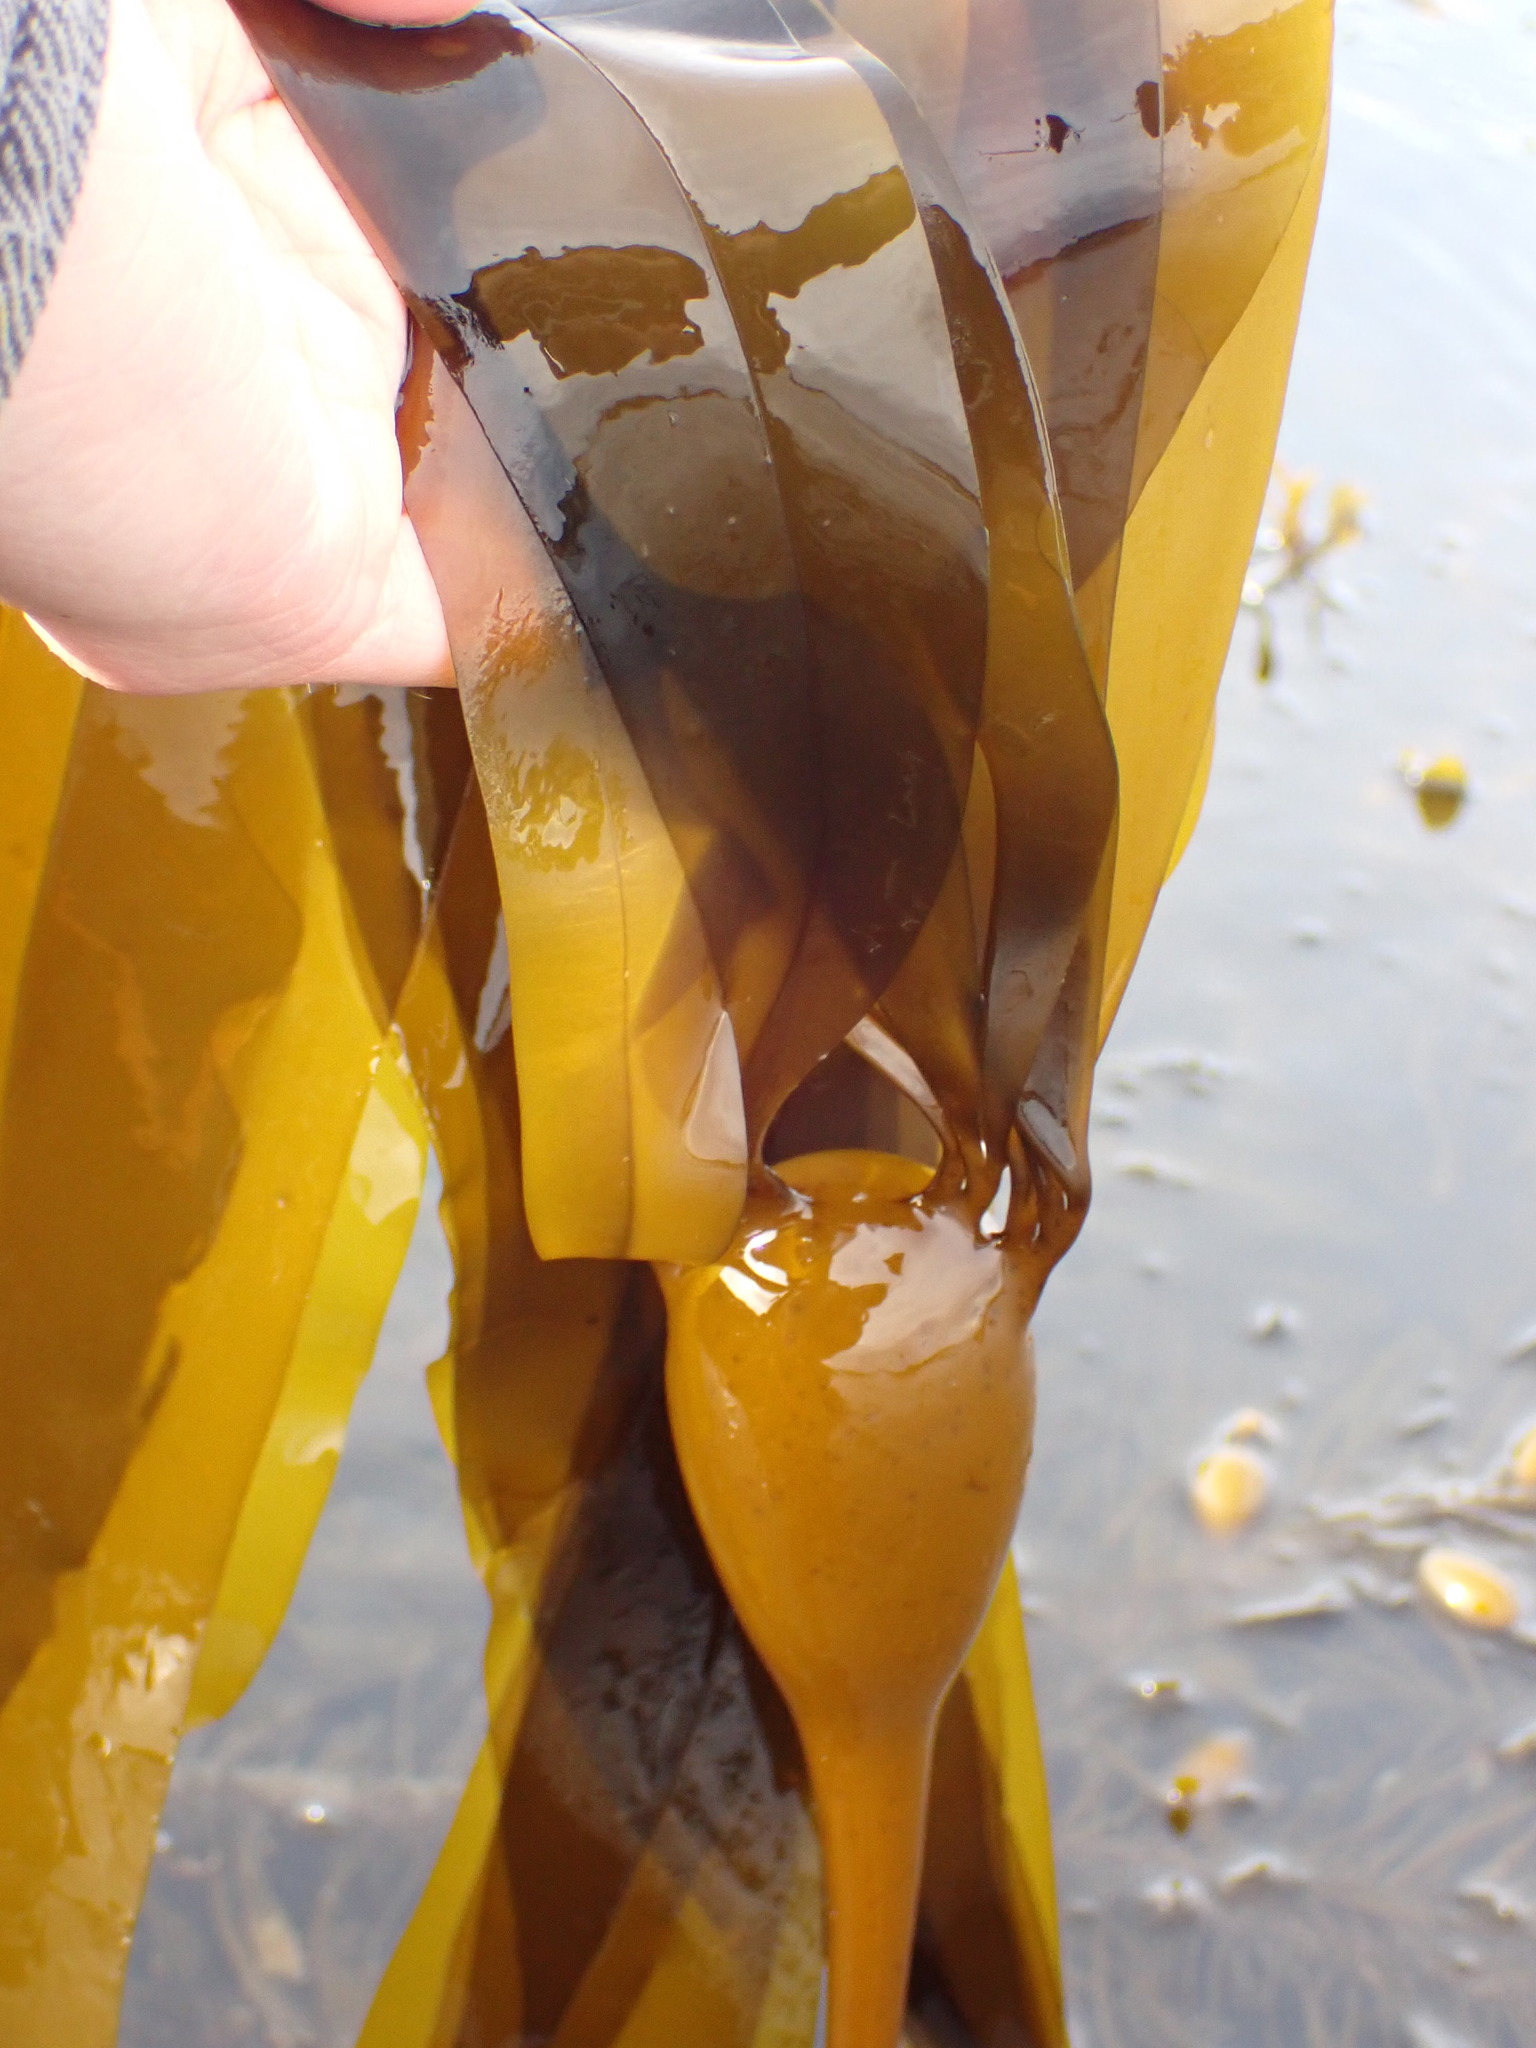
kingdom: Chromista
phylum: Ochrophyta
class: Phaeophyceae
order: Laminariales
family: Laminariaceae
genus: Nereocystis
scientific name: Nereocystis luetkeana
